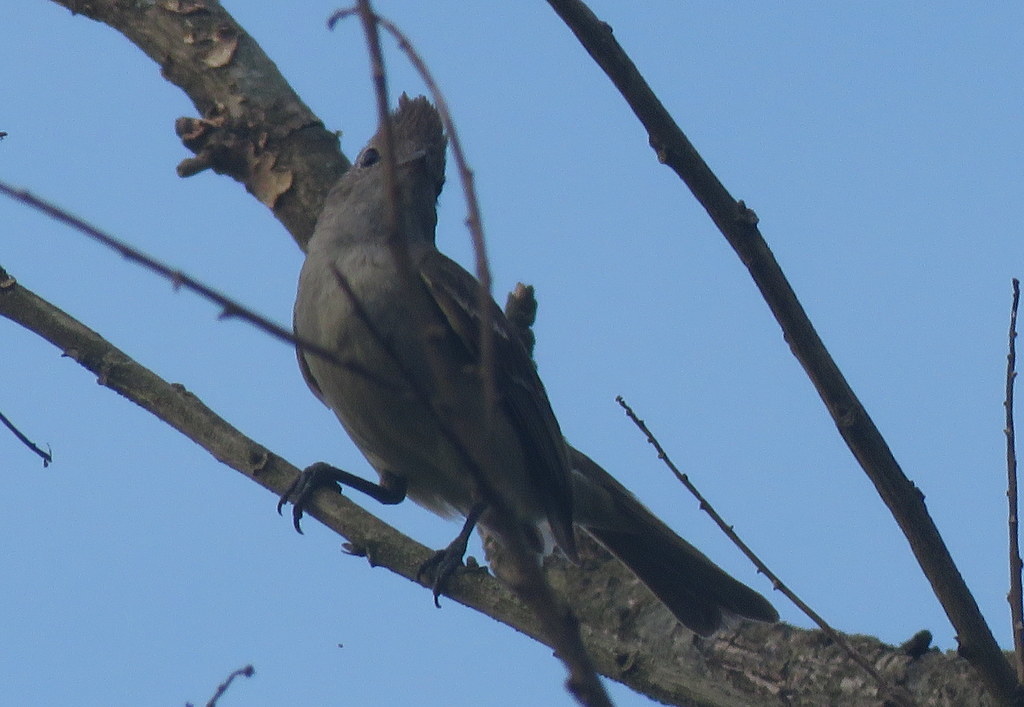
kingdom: Animalia
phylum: Chordata
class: Aves
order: Passeriformes
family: Tyrannidae
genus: Elaenia
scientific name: Elaenia flavogaster
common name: Yellow-bellied elaenia
